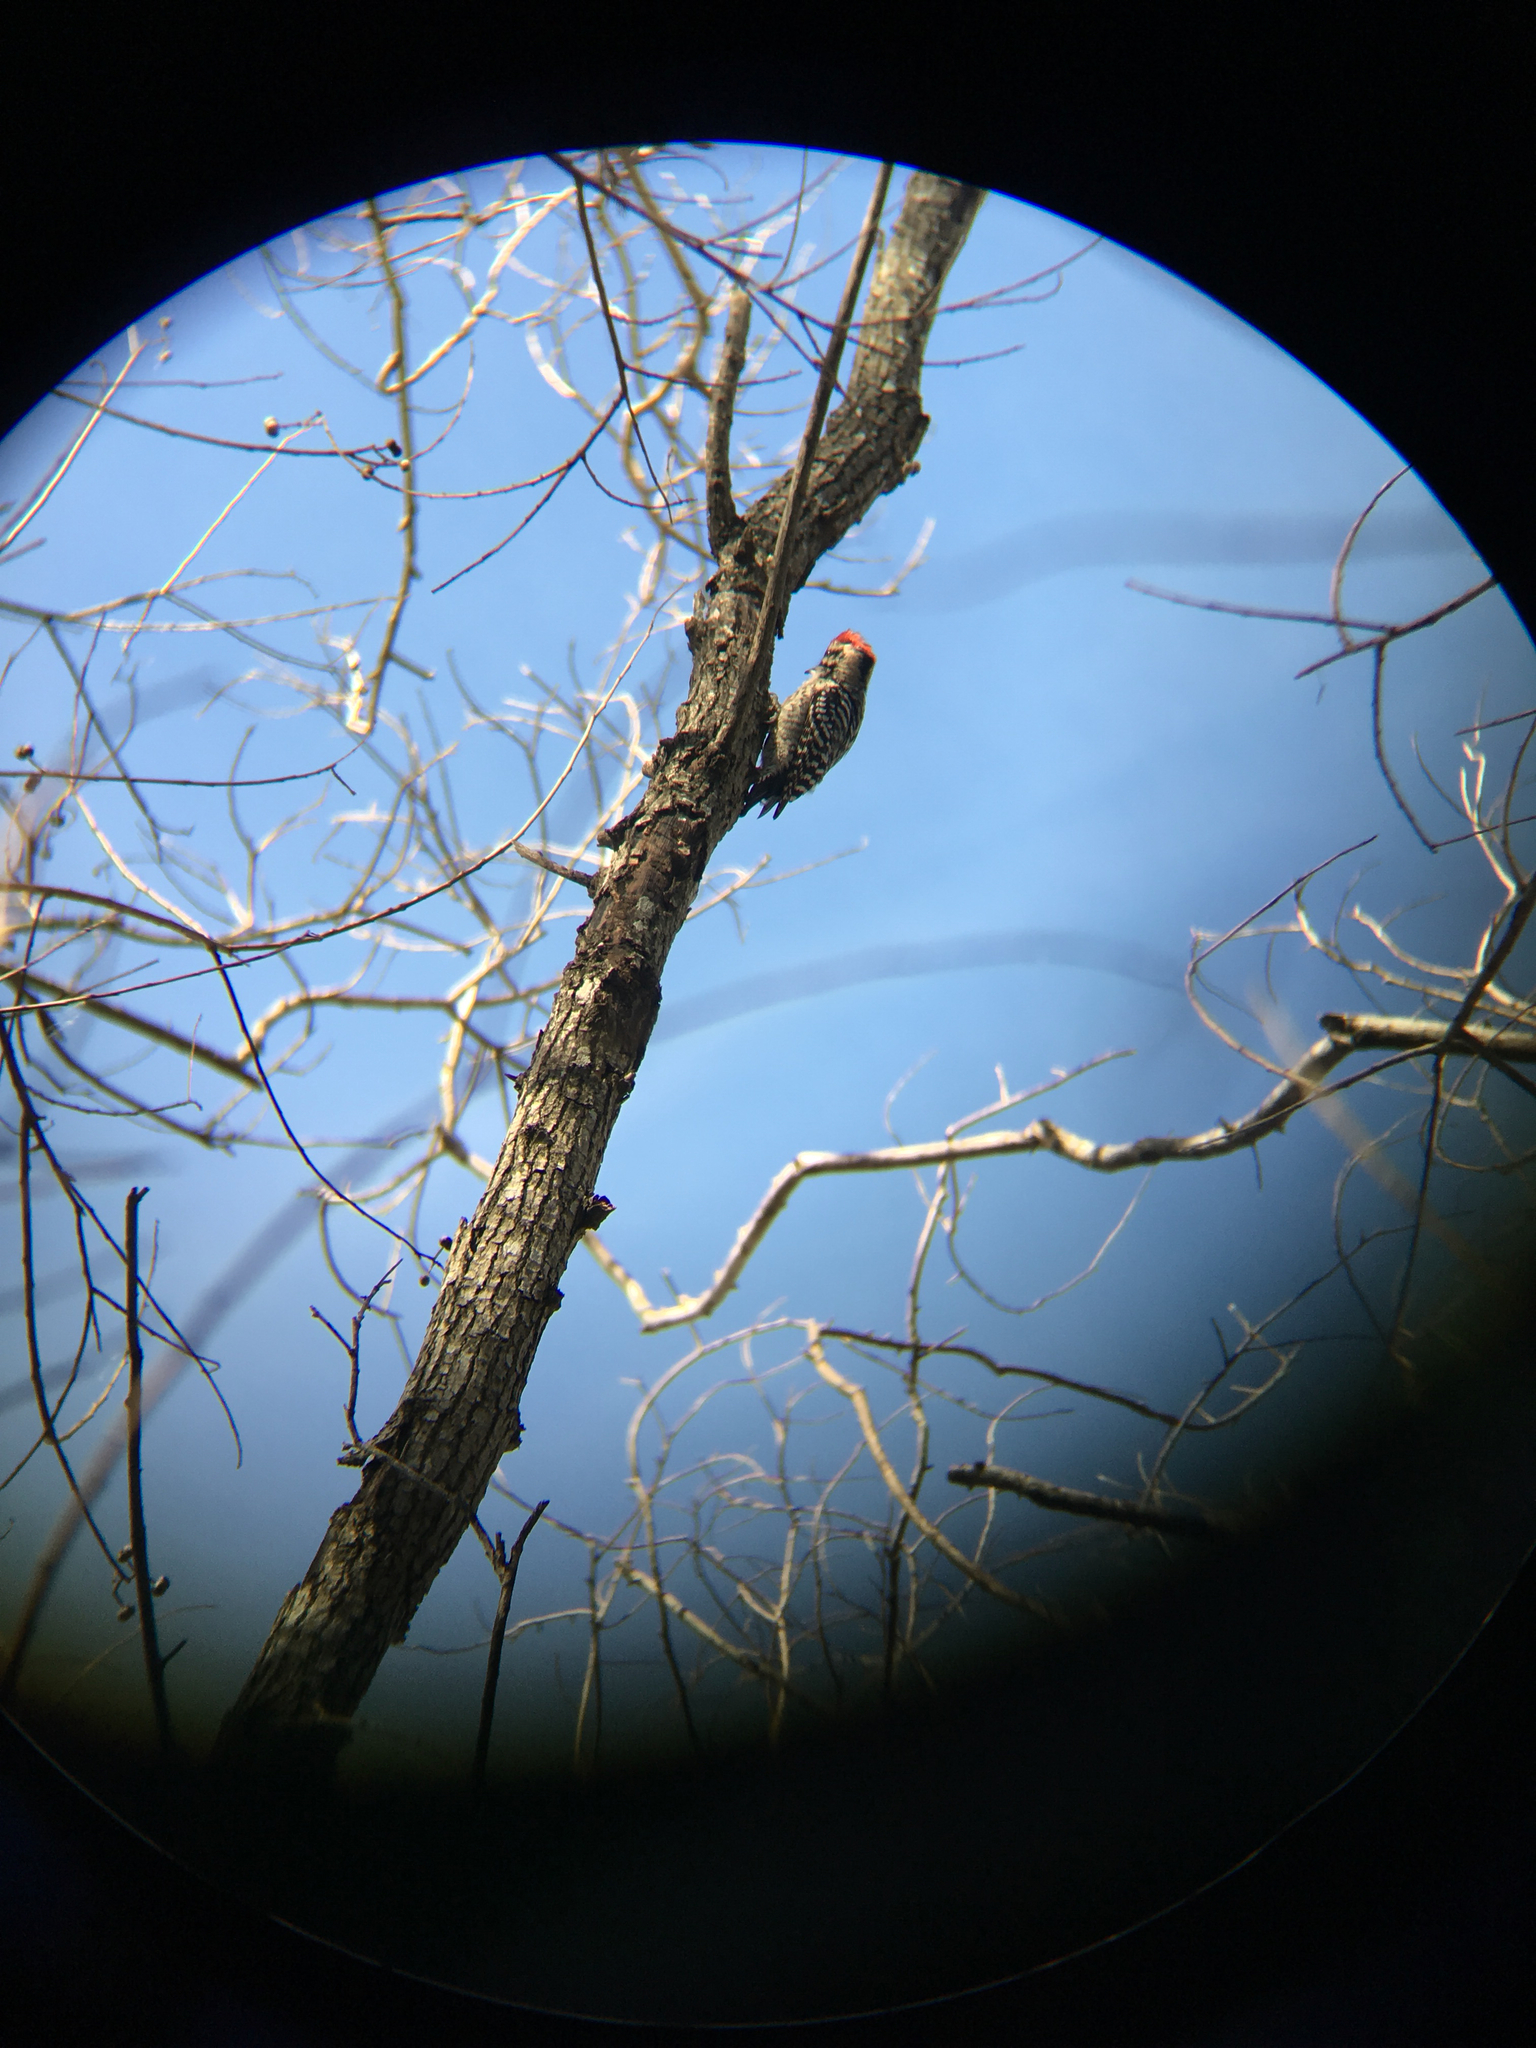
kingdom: Animalia
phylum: Chordata
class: Aves
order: Piciformes
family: Picidae
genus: Dryobates
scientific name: Dryobates scalaris
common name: Ladder-backed woodpecker
